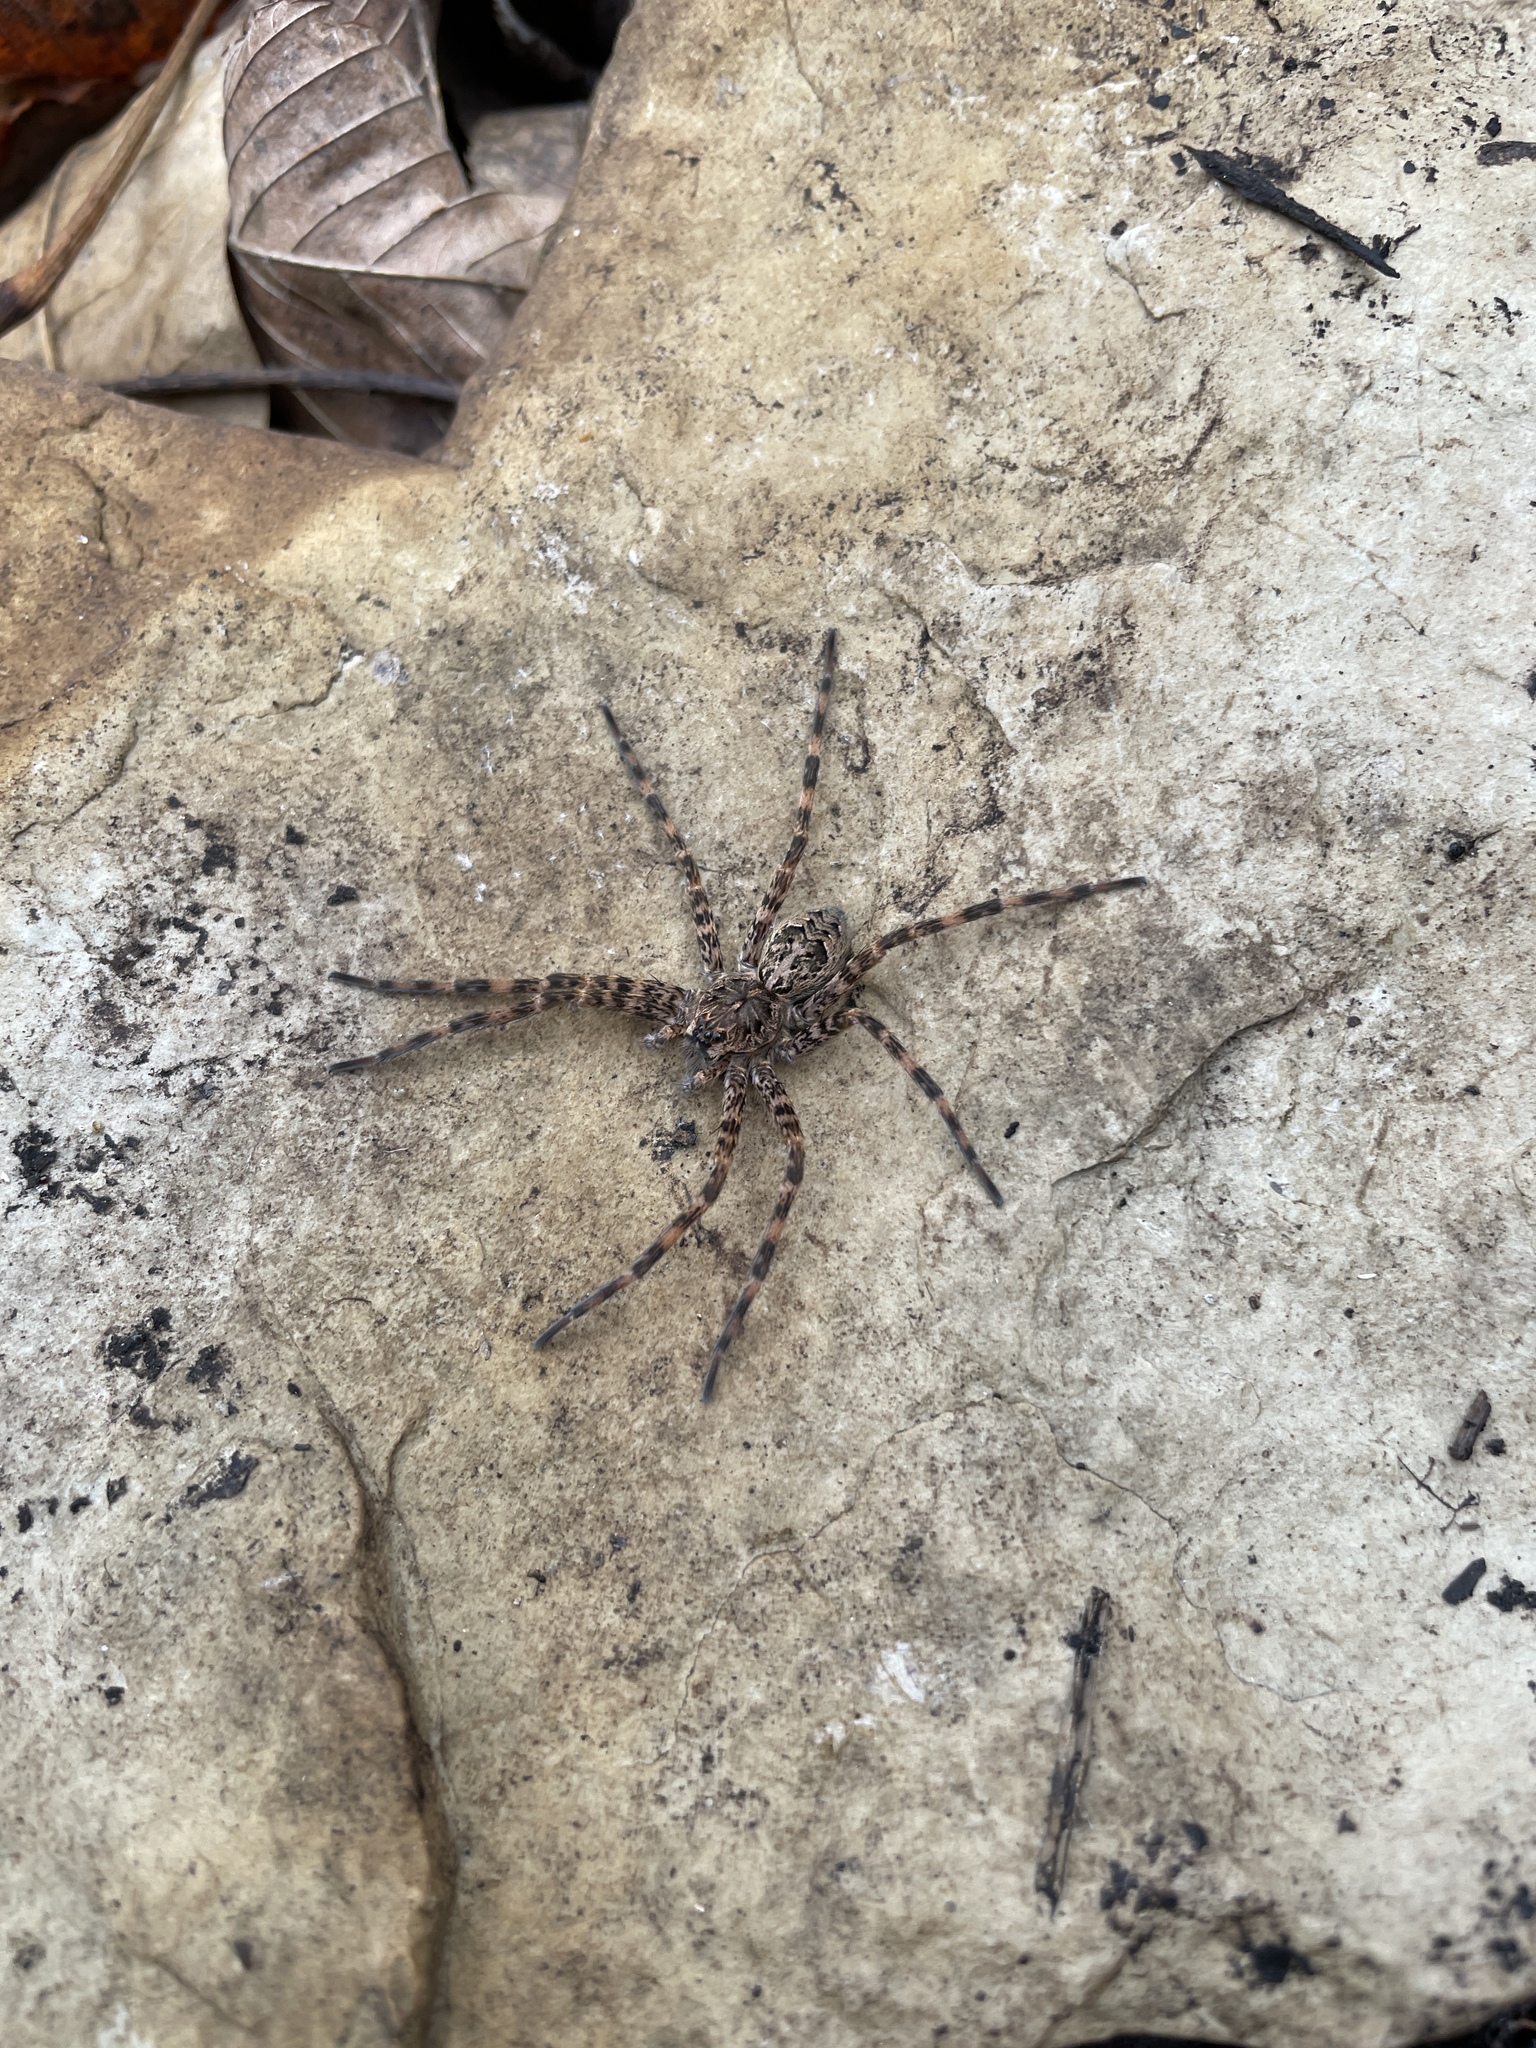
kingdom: Animalia
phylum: Arthropoda
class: Arachnida
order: Araneae
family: Pisauridae
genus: Dolomedes
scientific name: Dolomedes tenebrosus
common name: Dark fishing spider
